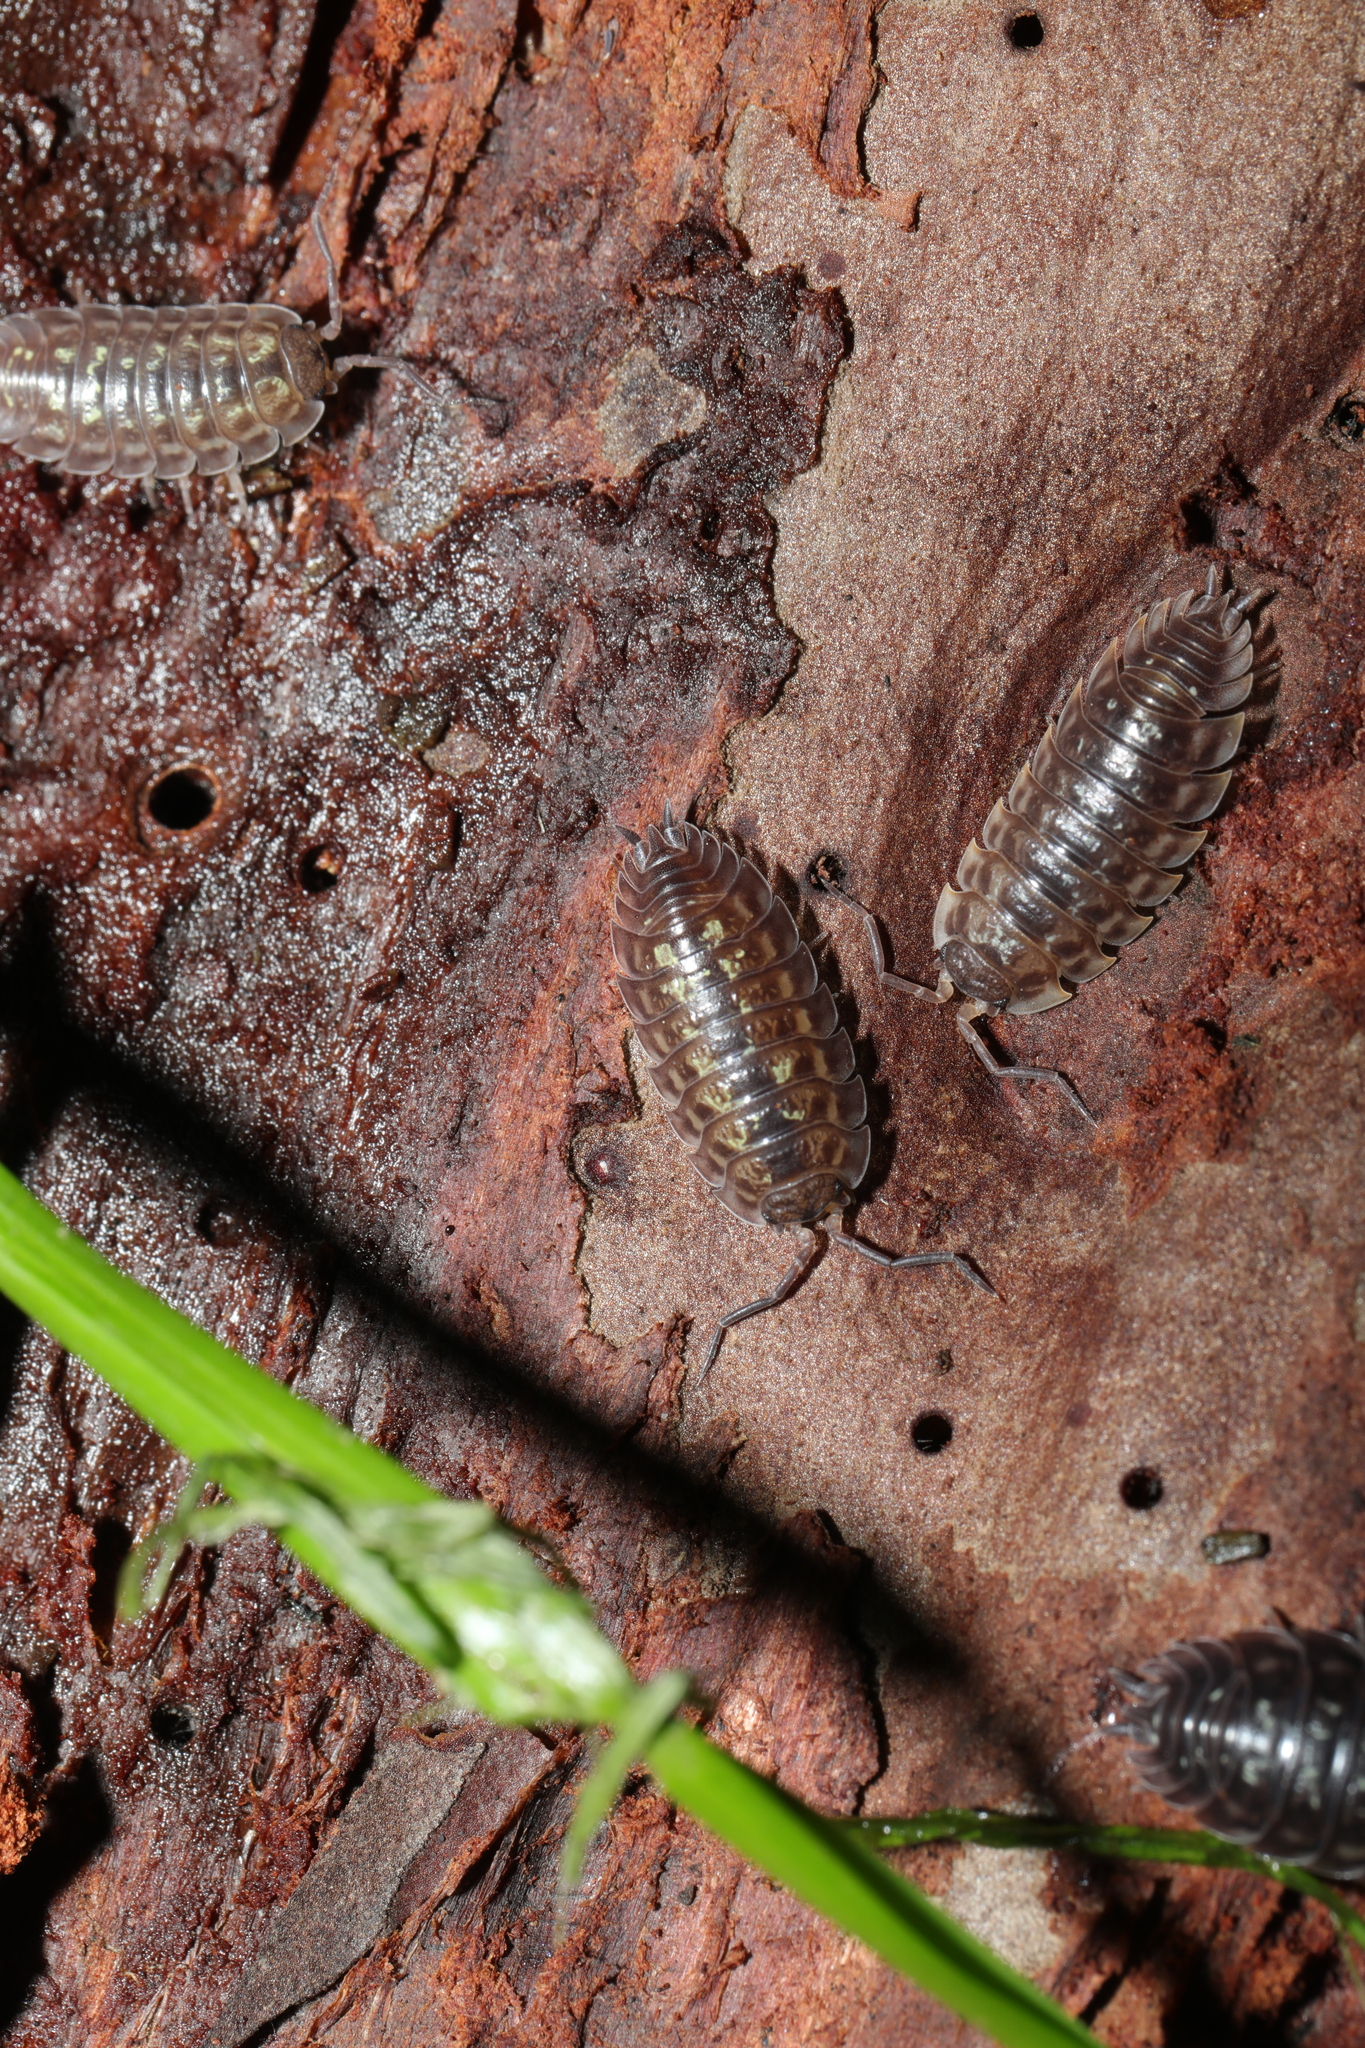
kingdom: Animalia
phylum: Arthropoda
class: Malacostraca
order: Isopoda
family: Oniscidae
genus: Oniscus
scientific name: Oniscus asellus
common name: Common shiny woodlouse
